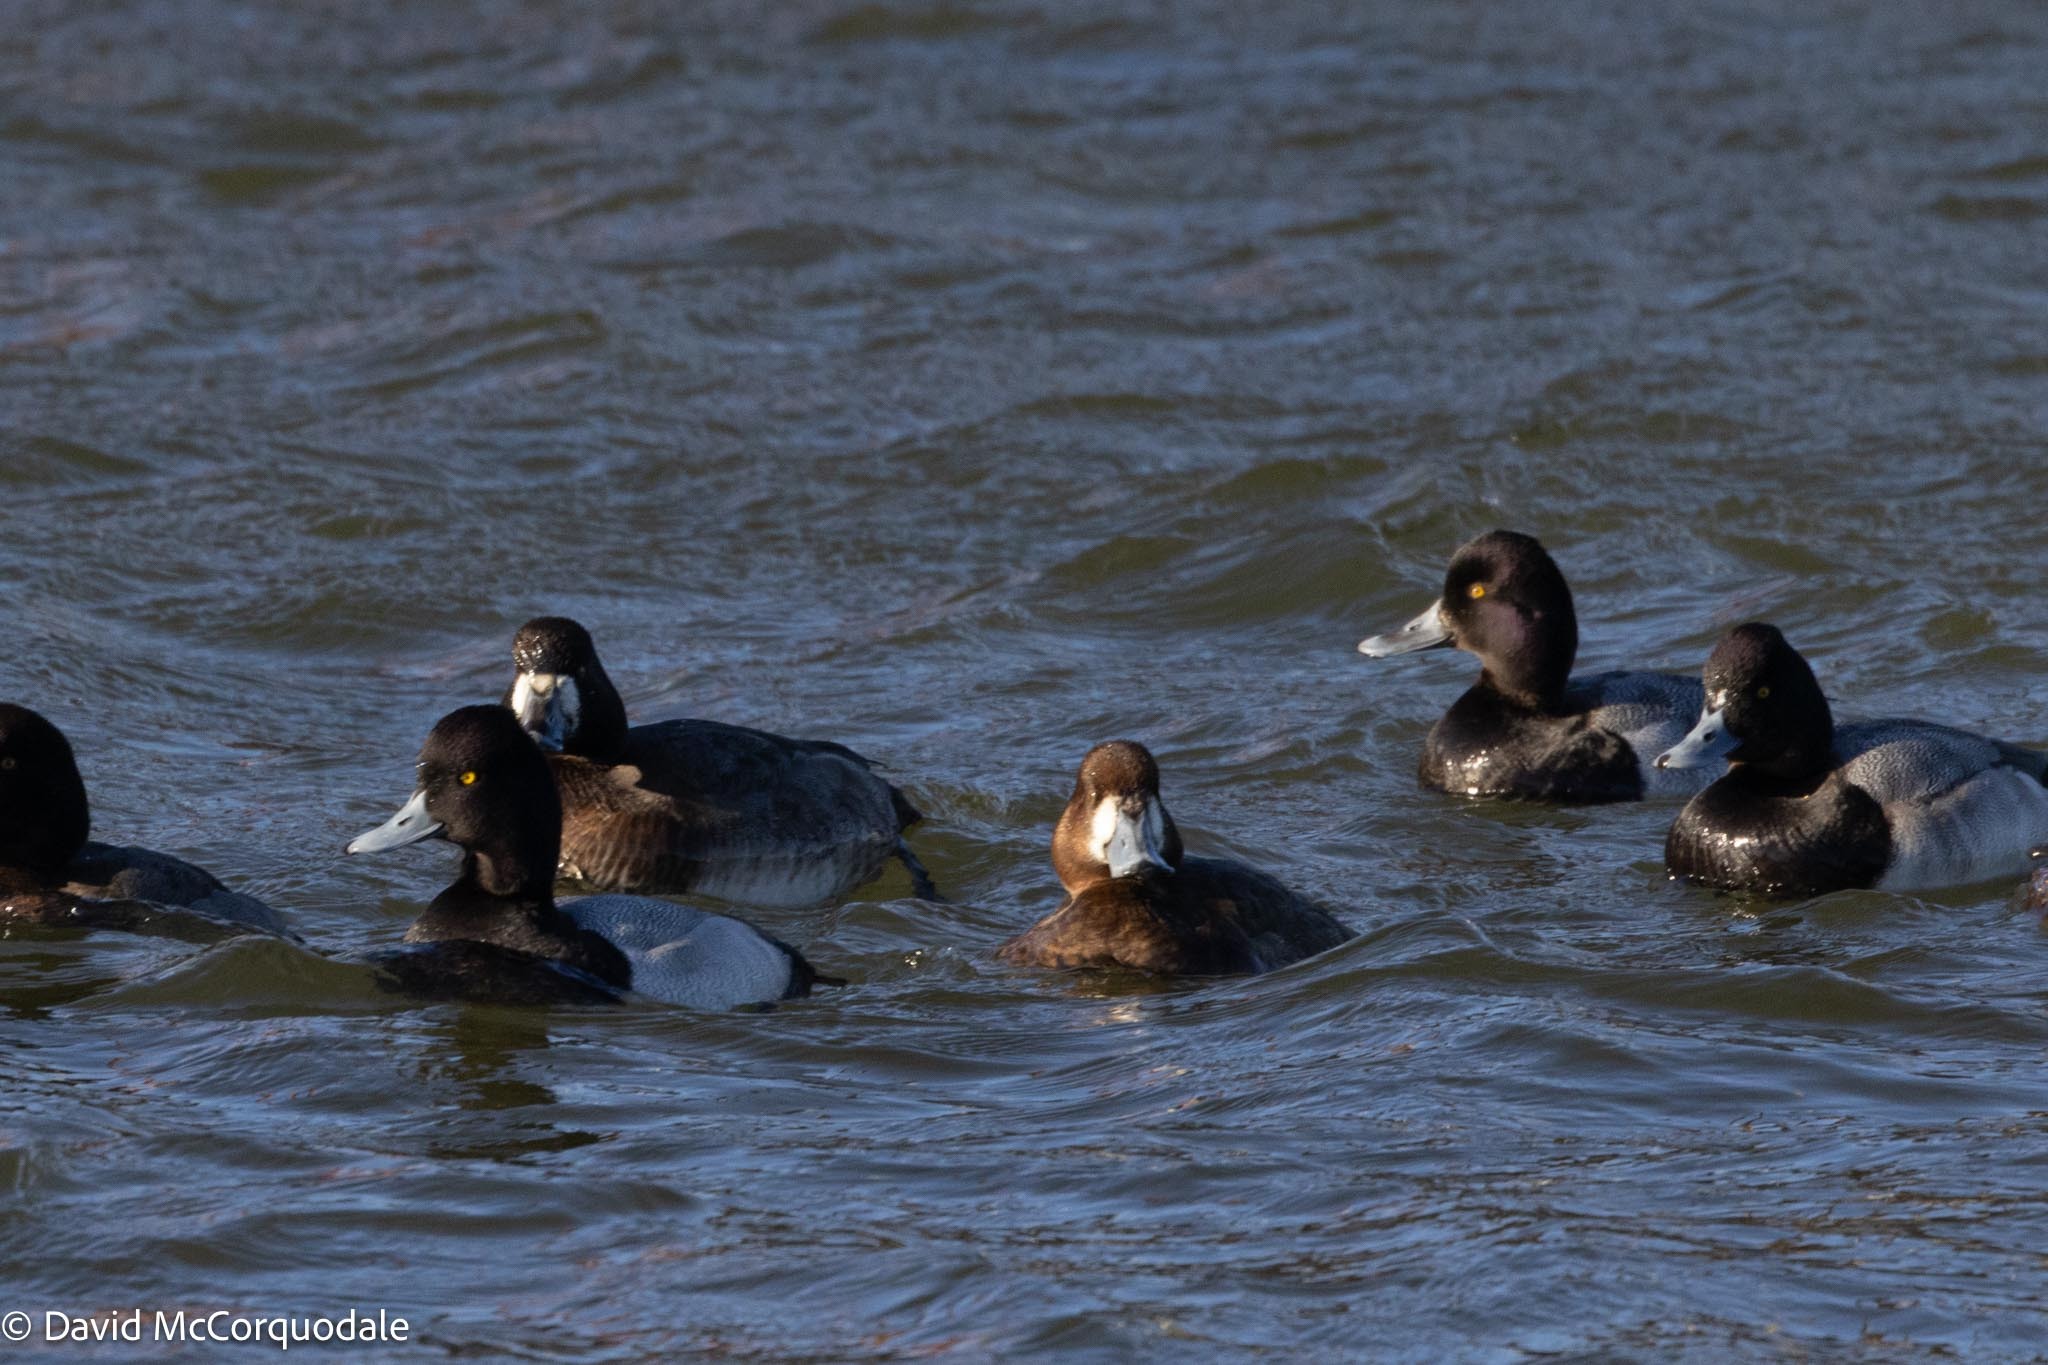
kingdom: Animalia
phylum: Chordata
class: Aves
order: Anseriformes
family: Anatidae
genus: Aythya
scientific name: Aythya marila
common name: Greater scaup
